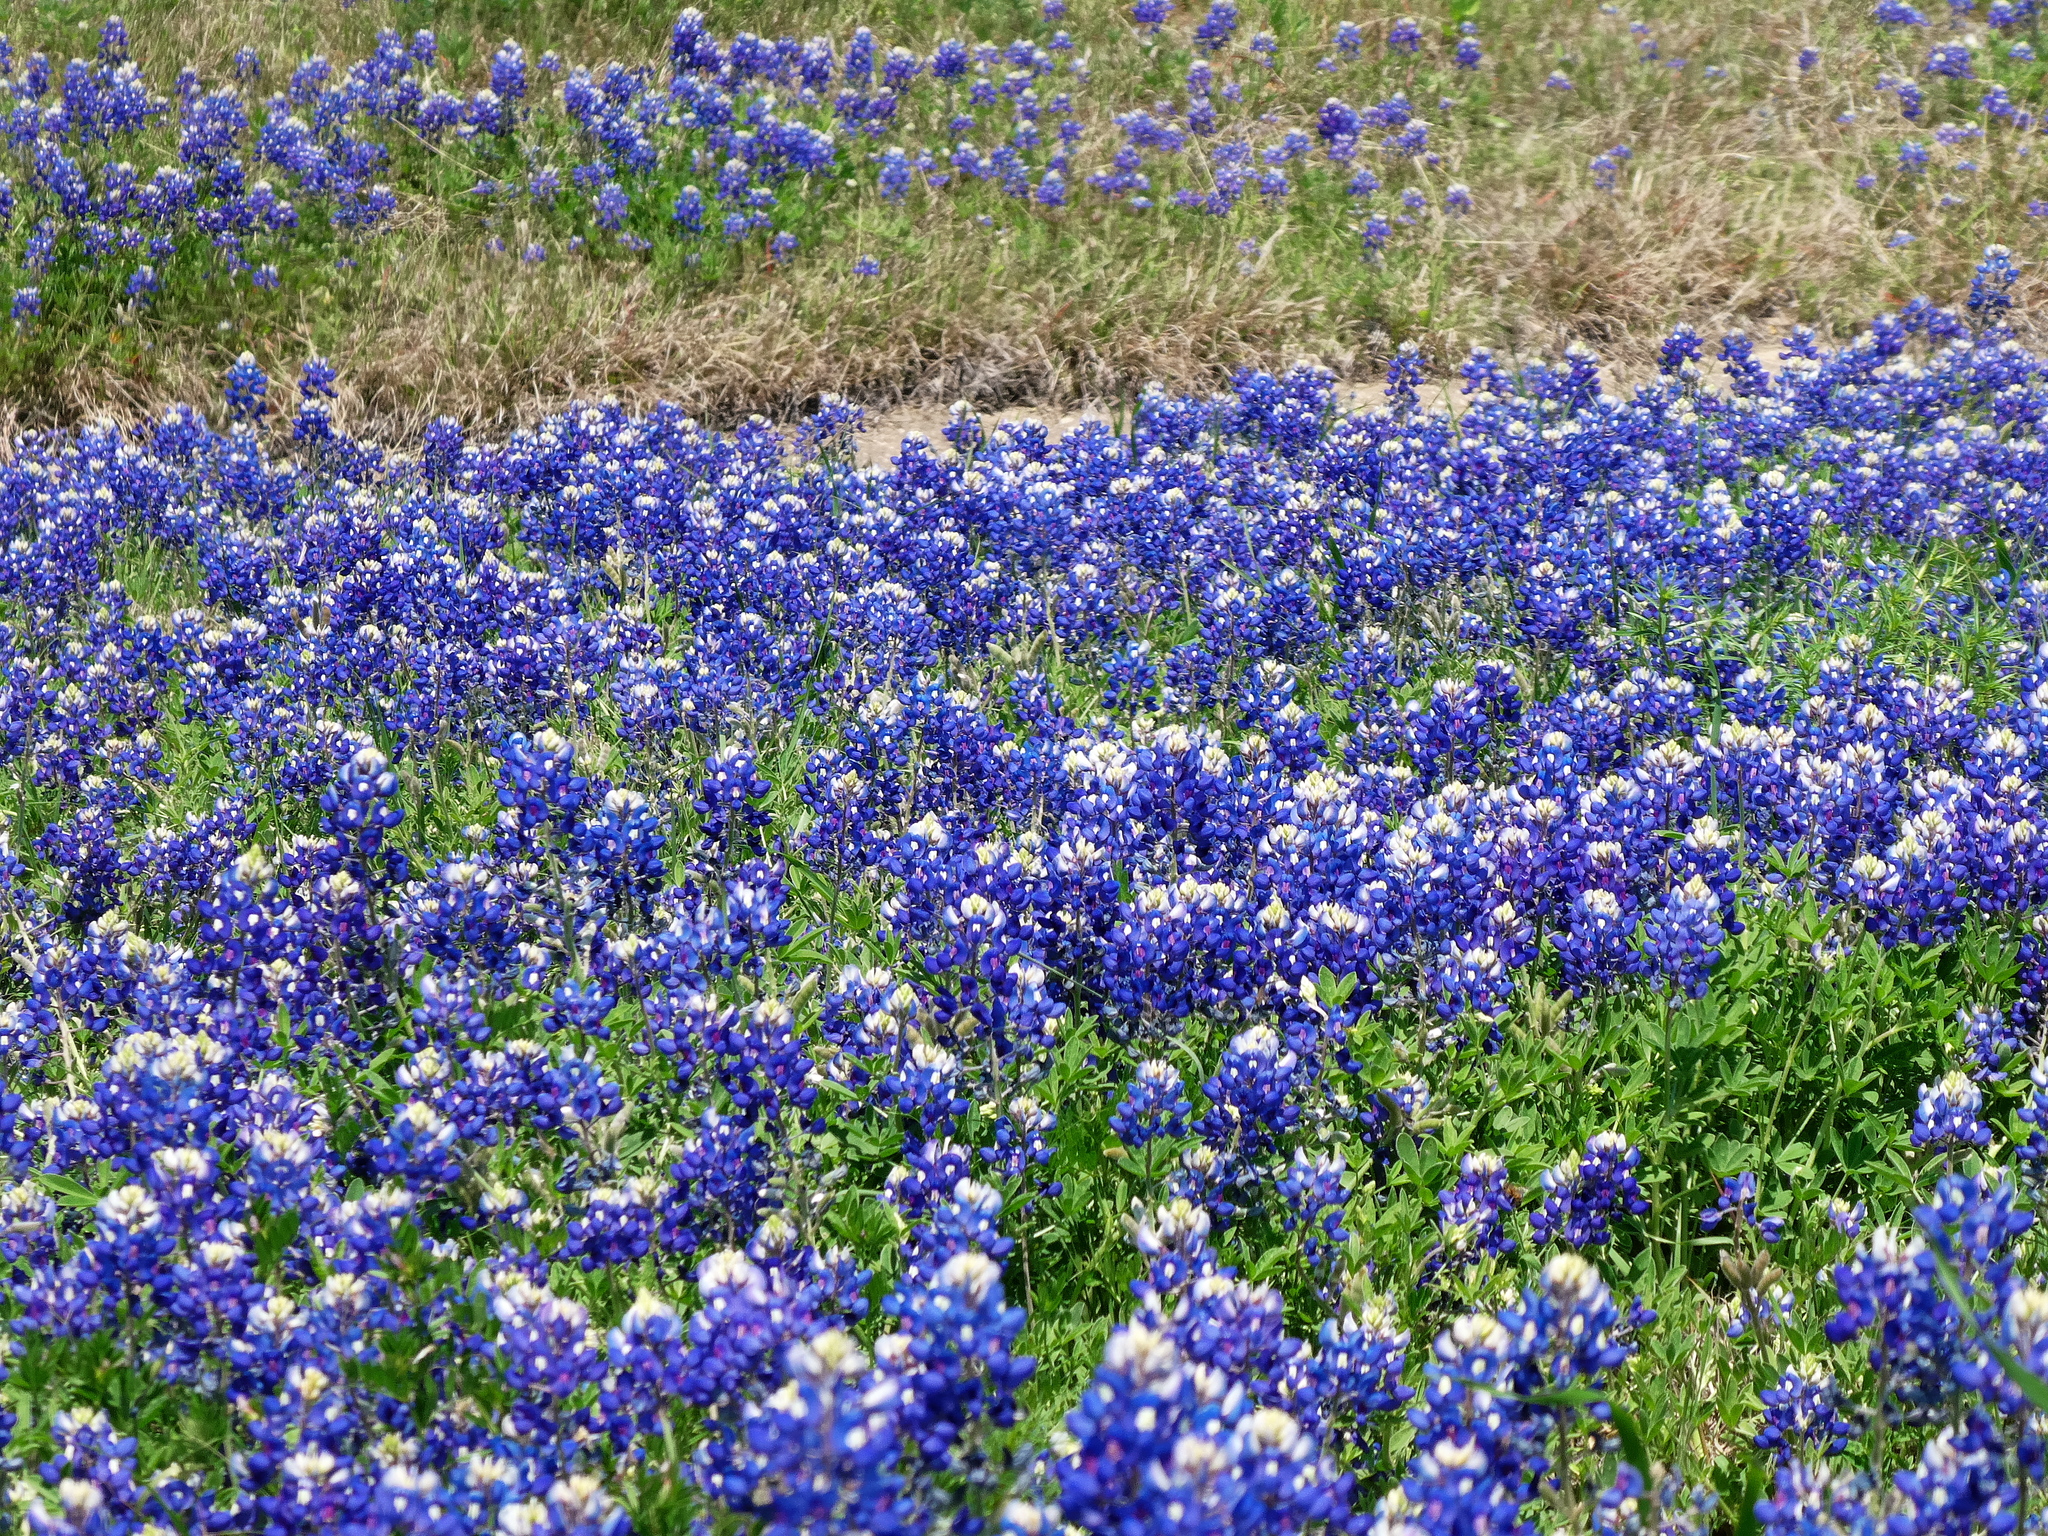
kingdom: Plantae
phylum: Tracheophyta
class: Magnoliopsida
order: Fabales
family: Fabaceae
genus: Lupinus
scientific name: Lupinus texensis
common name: Texas bluebonnet
